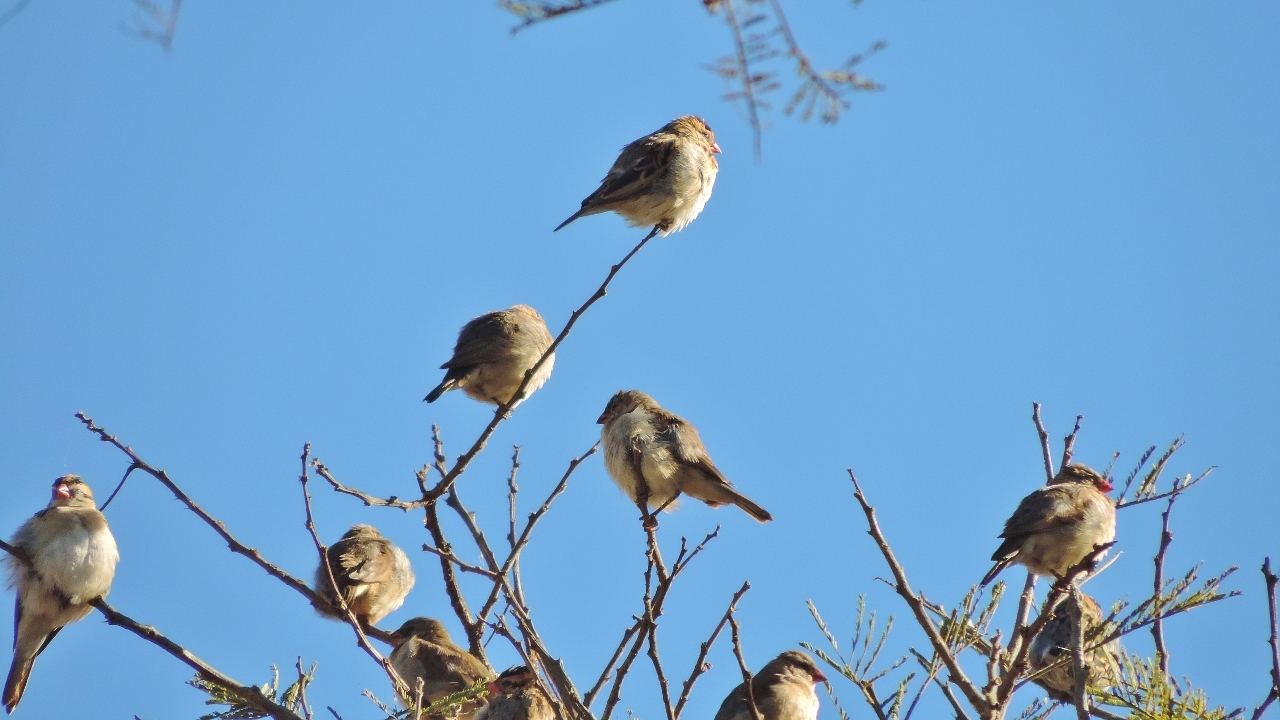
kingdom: Animalia
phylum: Chordata
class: Aves
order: Passeriformes
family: Viduidae
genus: Vidua
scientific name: Vidua macroura
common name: Pin-tailed whydah
